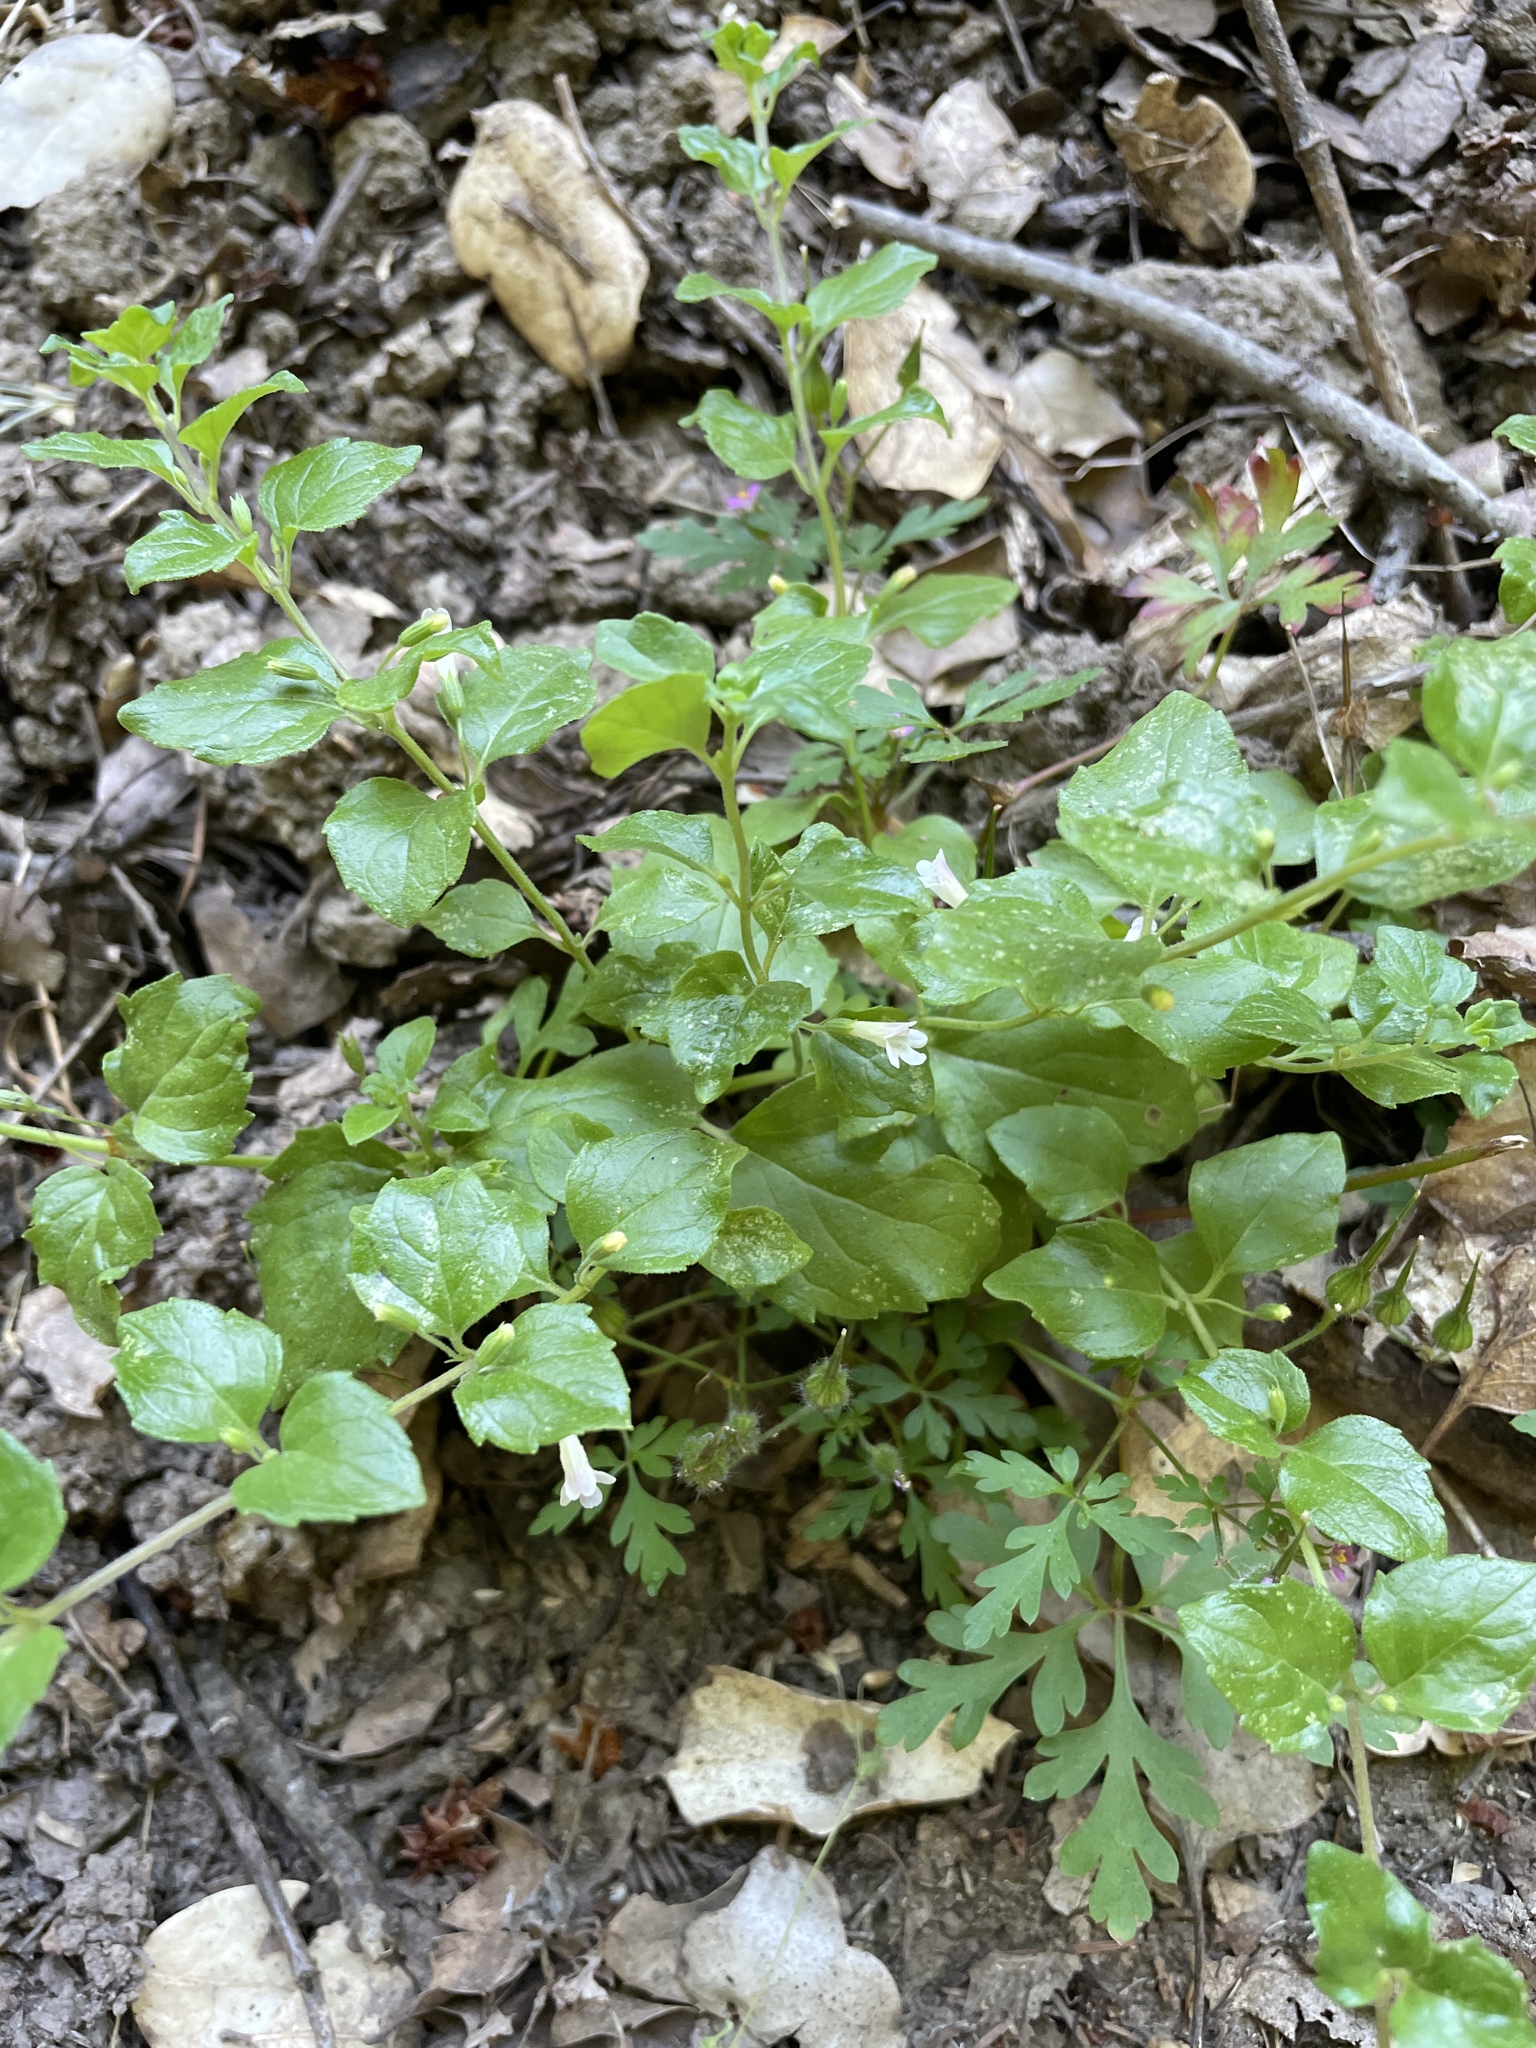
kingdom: Plantae
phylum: Tracheophyta
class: Magnoliopsida
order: Lamiales
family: Lamiaceae
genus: Micromeria
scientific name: Micromeria douglasii
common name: Yerba buena
